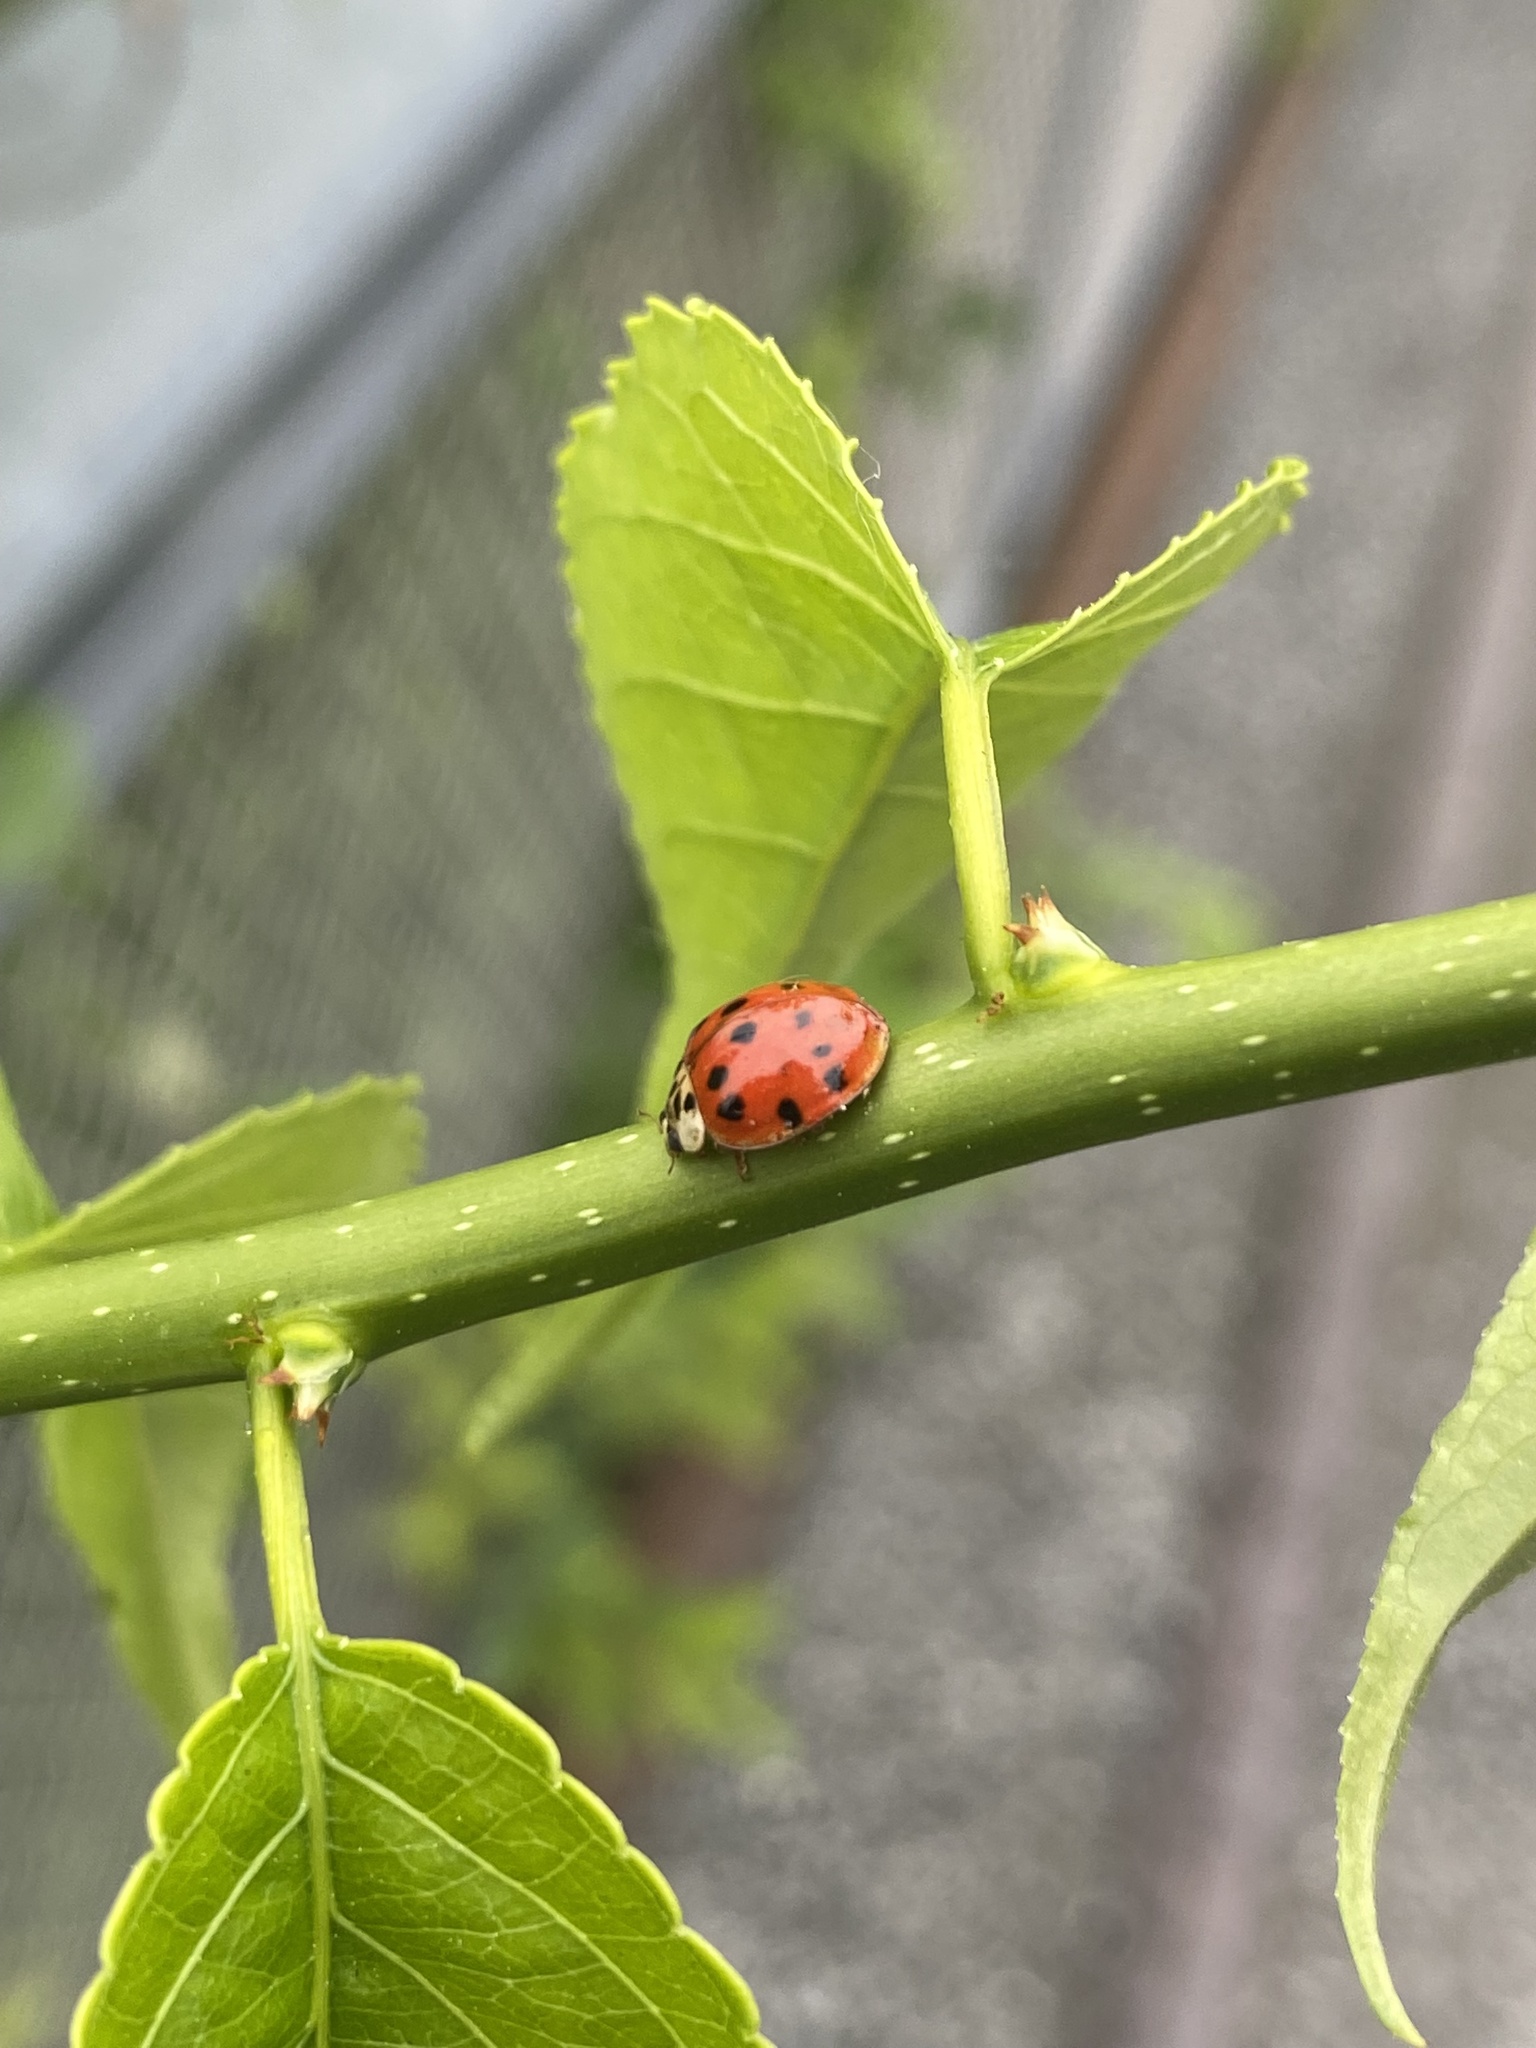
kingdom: Animalia
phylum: Arthropoda
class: Insecta
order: Coleoptera
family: Coccinellidae
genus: Harmonia
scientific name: Harmonia axyridis
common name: Harlequin ladybird
